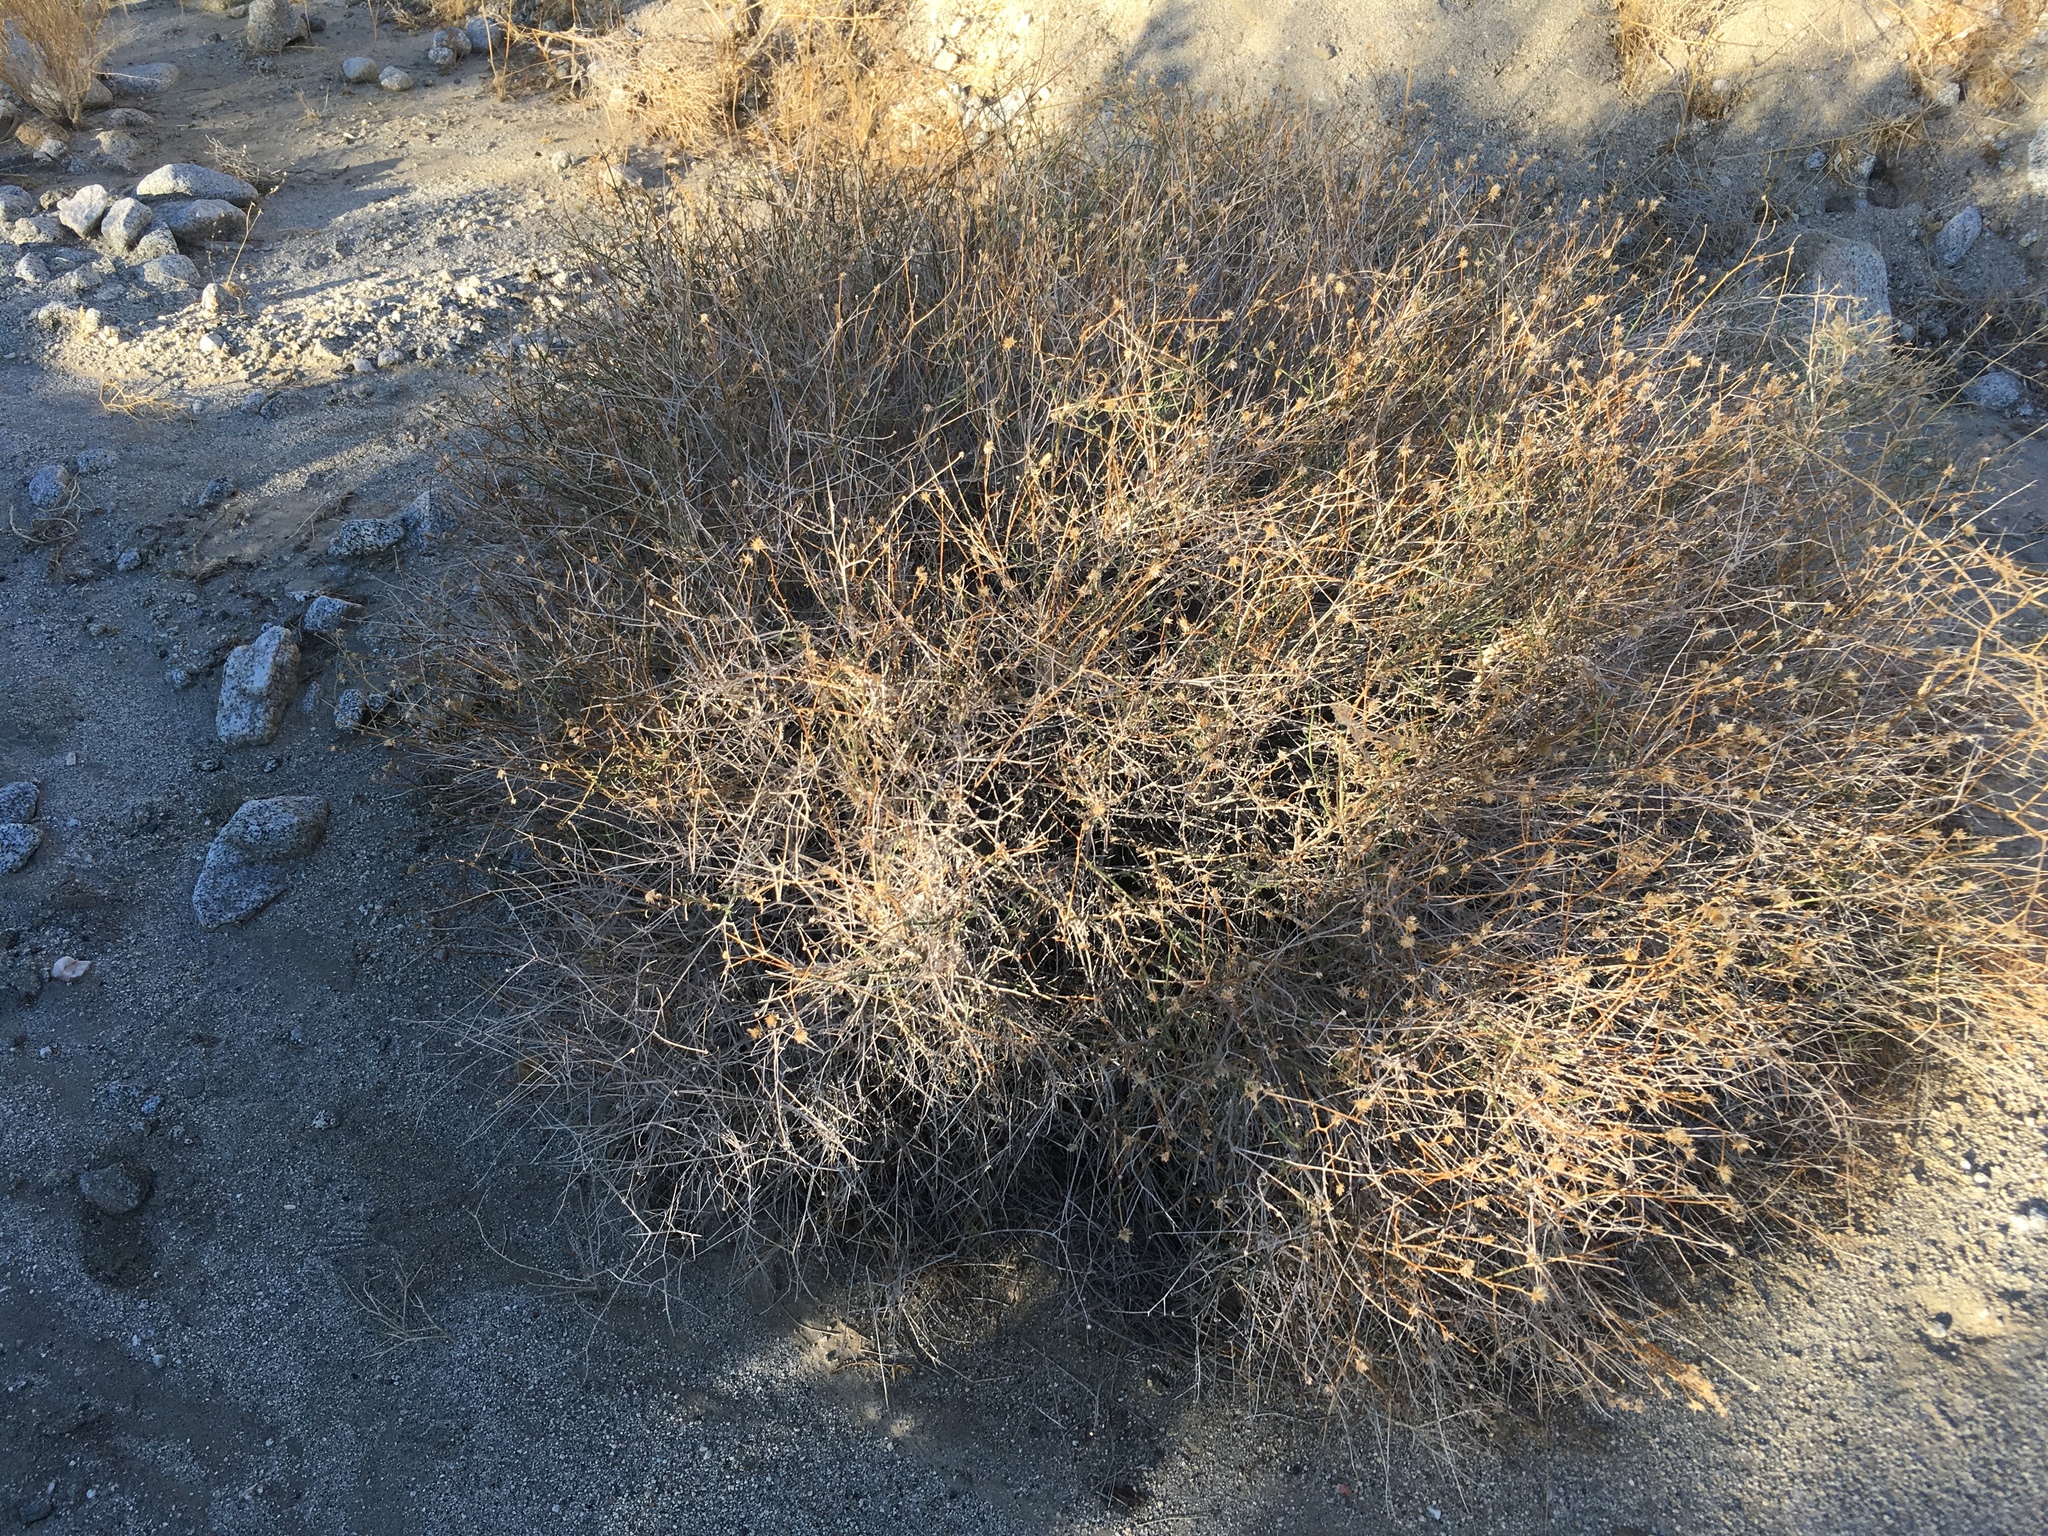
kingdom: Plantae
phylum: Tracheophyta
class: Magnoliopsida
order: Asterales
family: Asteraceae
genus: Bebbia
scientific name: Bebbia juncea
